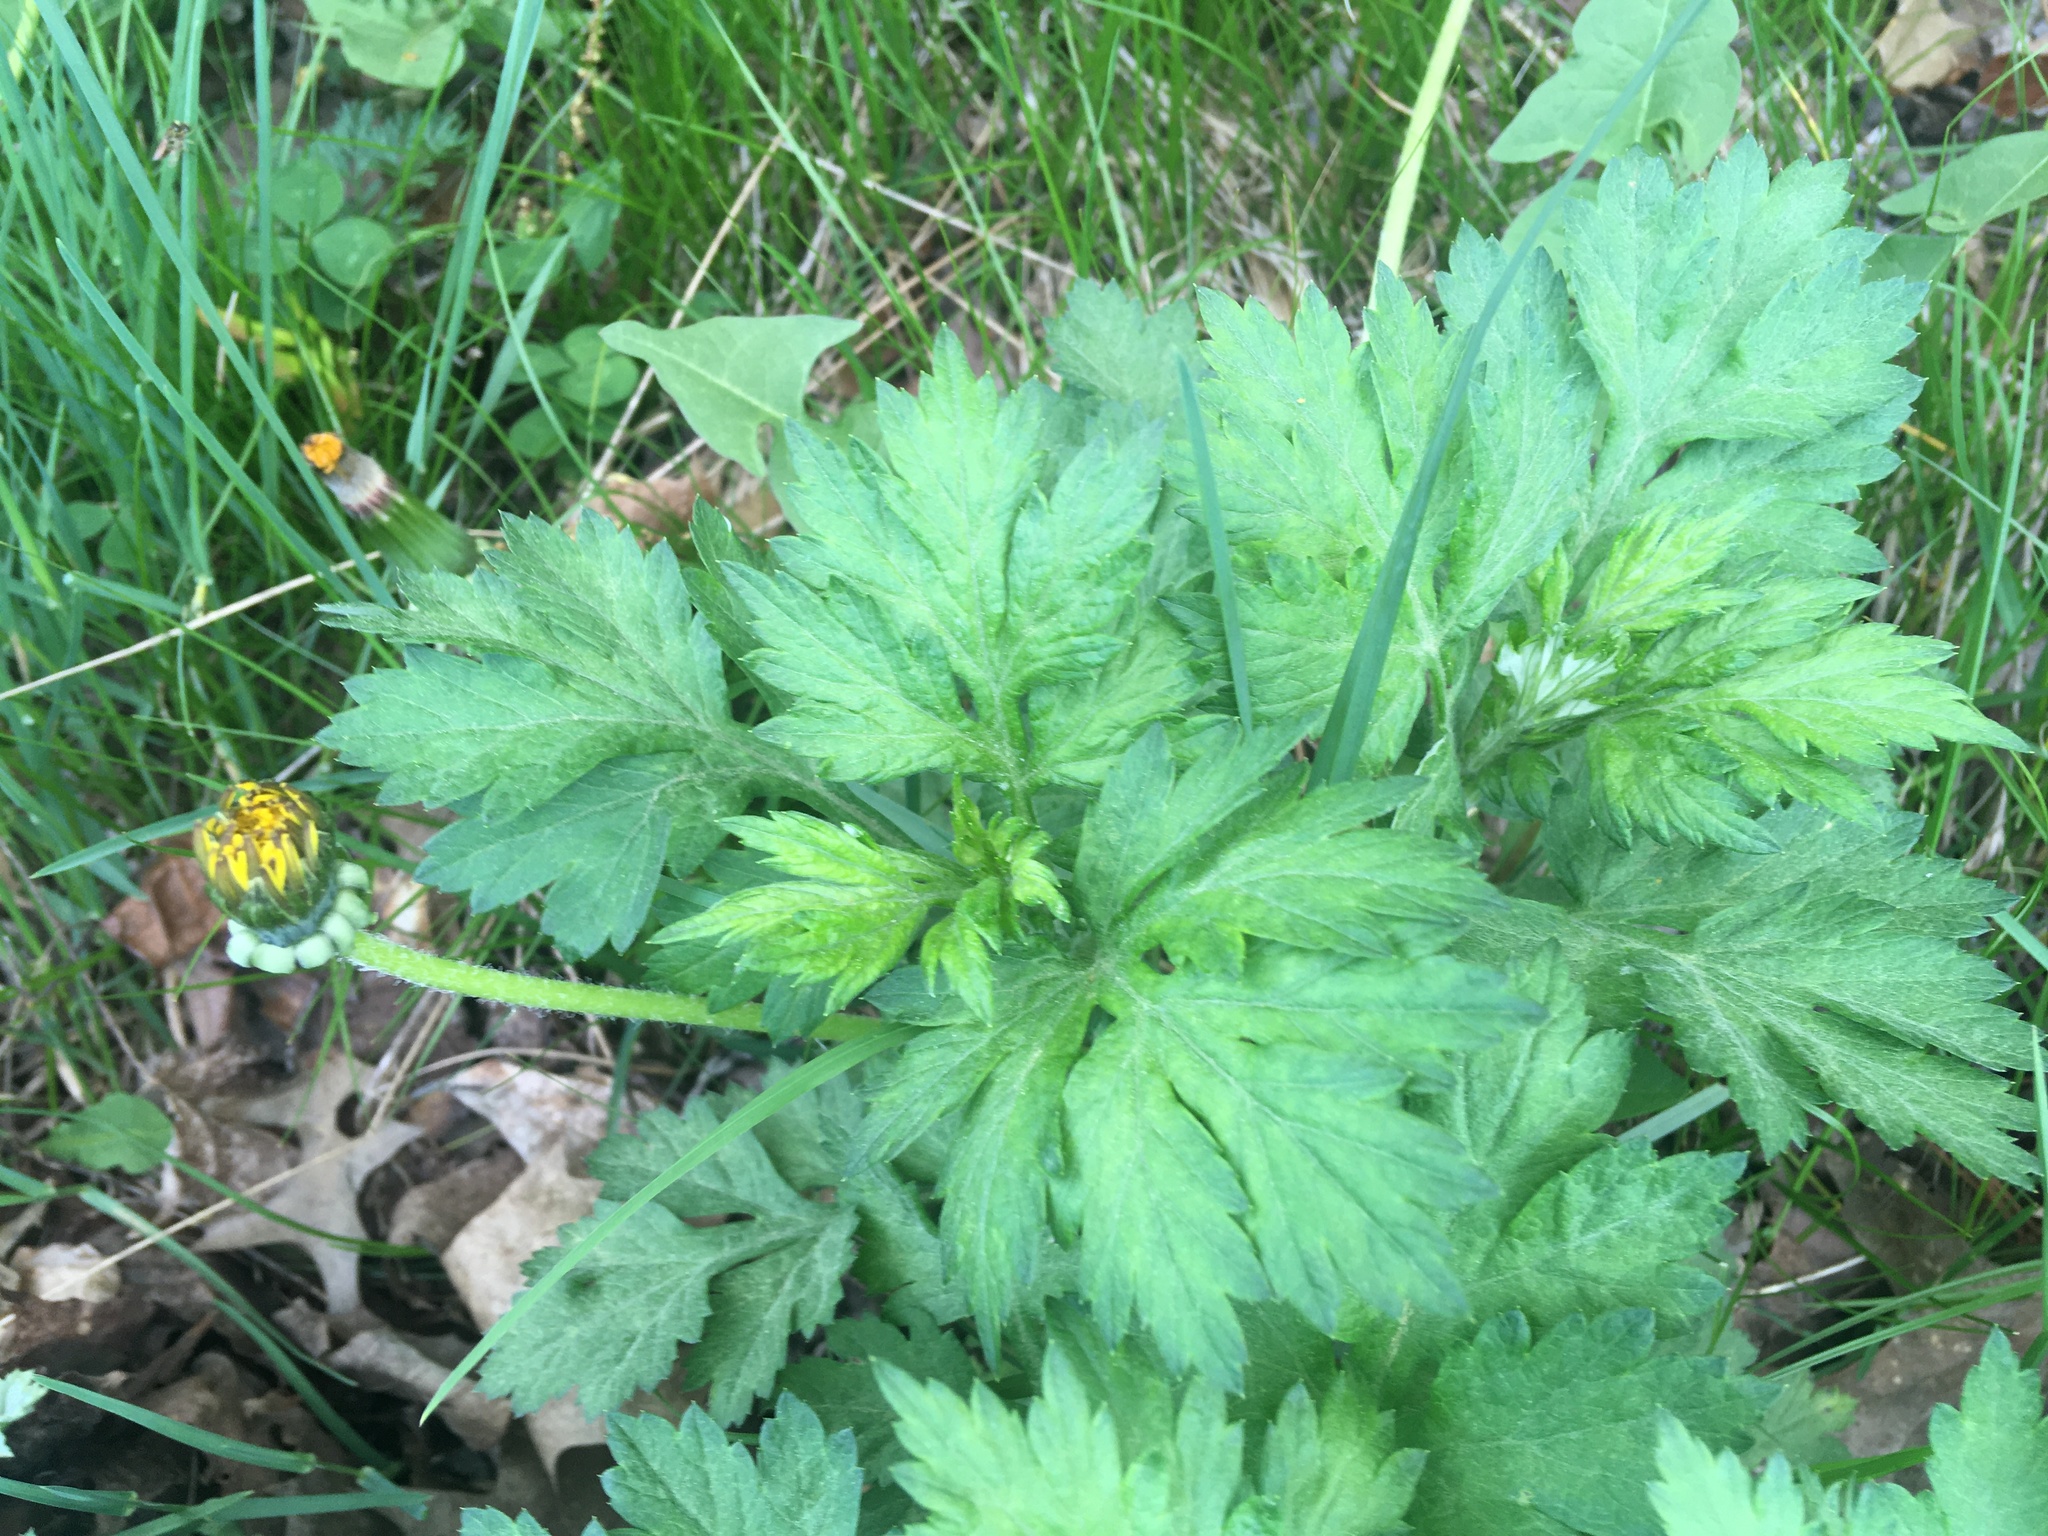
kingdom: Plantae
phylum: Tracheophyta
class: Magnoliopsida
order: Asterales
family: Asteraceae
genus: Artemisia
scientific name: Artemisia vulgaris
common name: Mugwort
